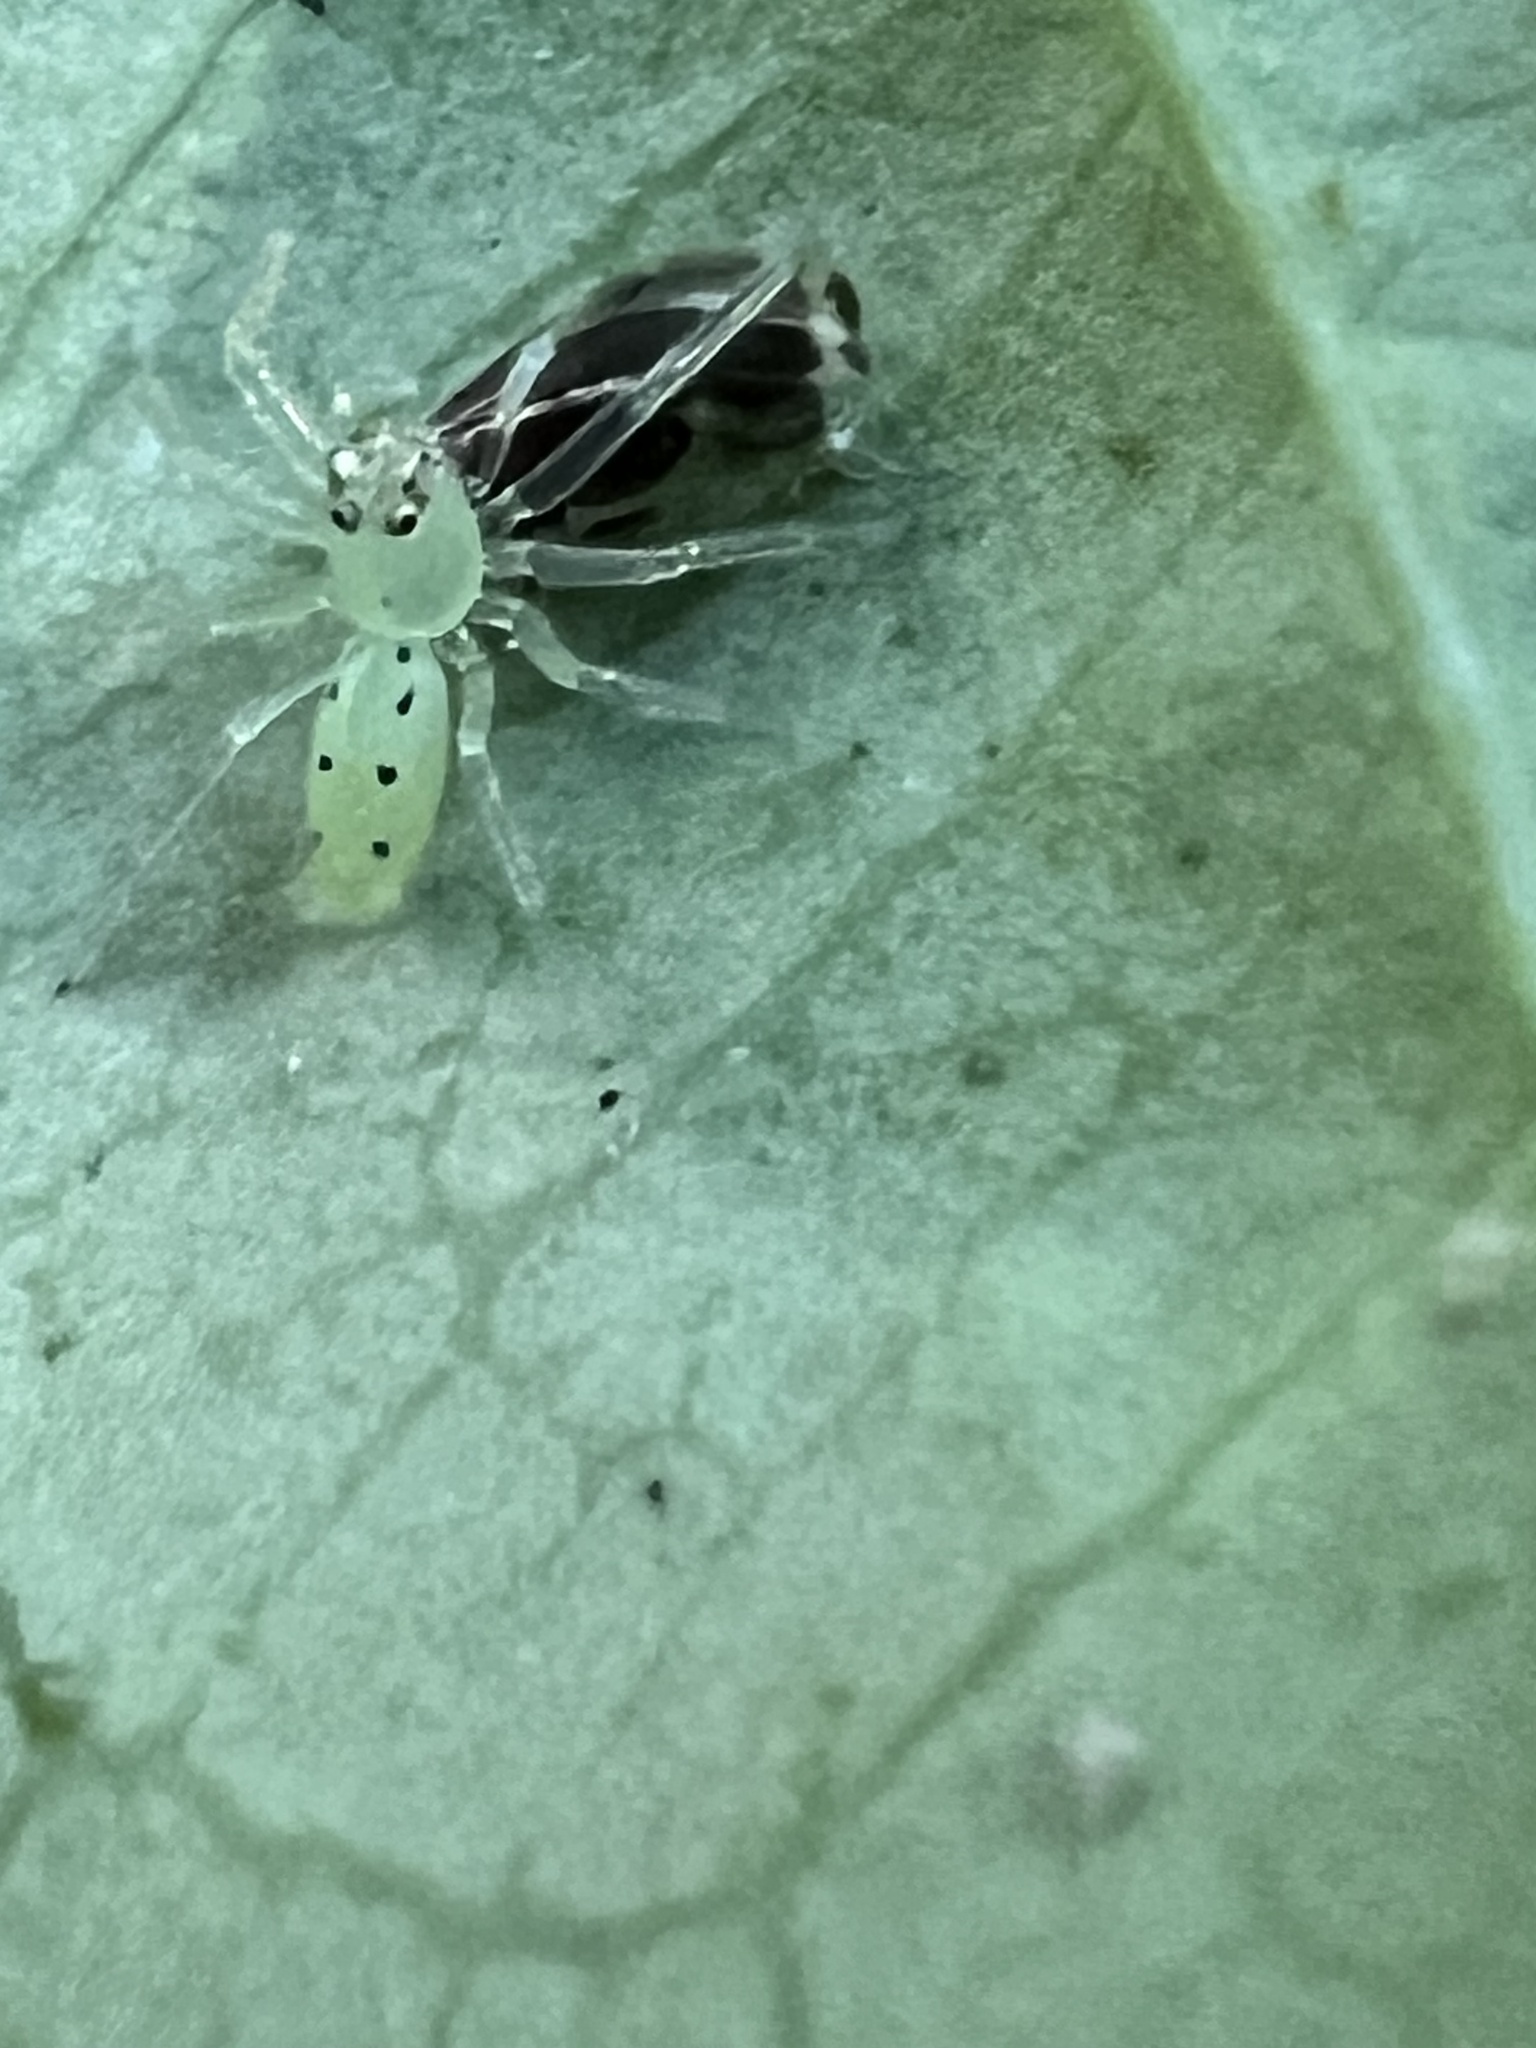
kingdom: Animalia
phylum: Arthropoda
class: Arachnida
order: Araneae
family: Salticidae
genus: Lyssomanes
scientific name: Lyssomanes viridis
